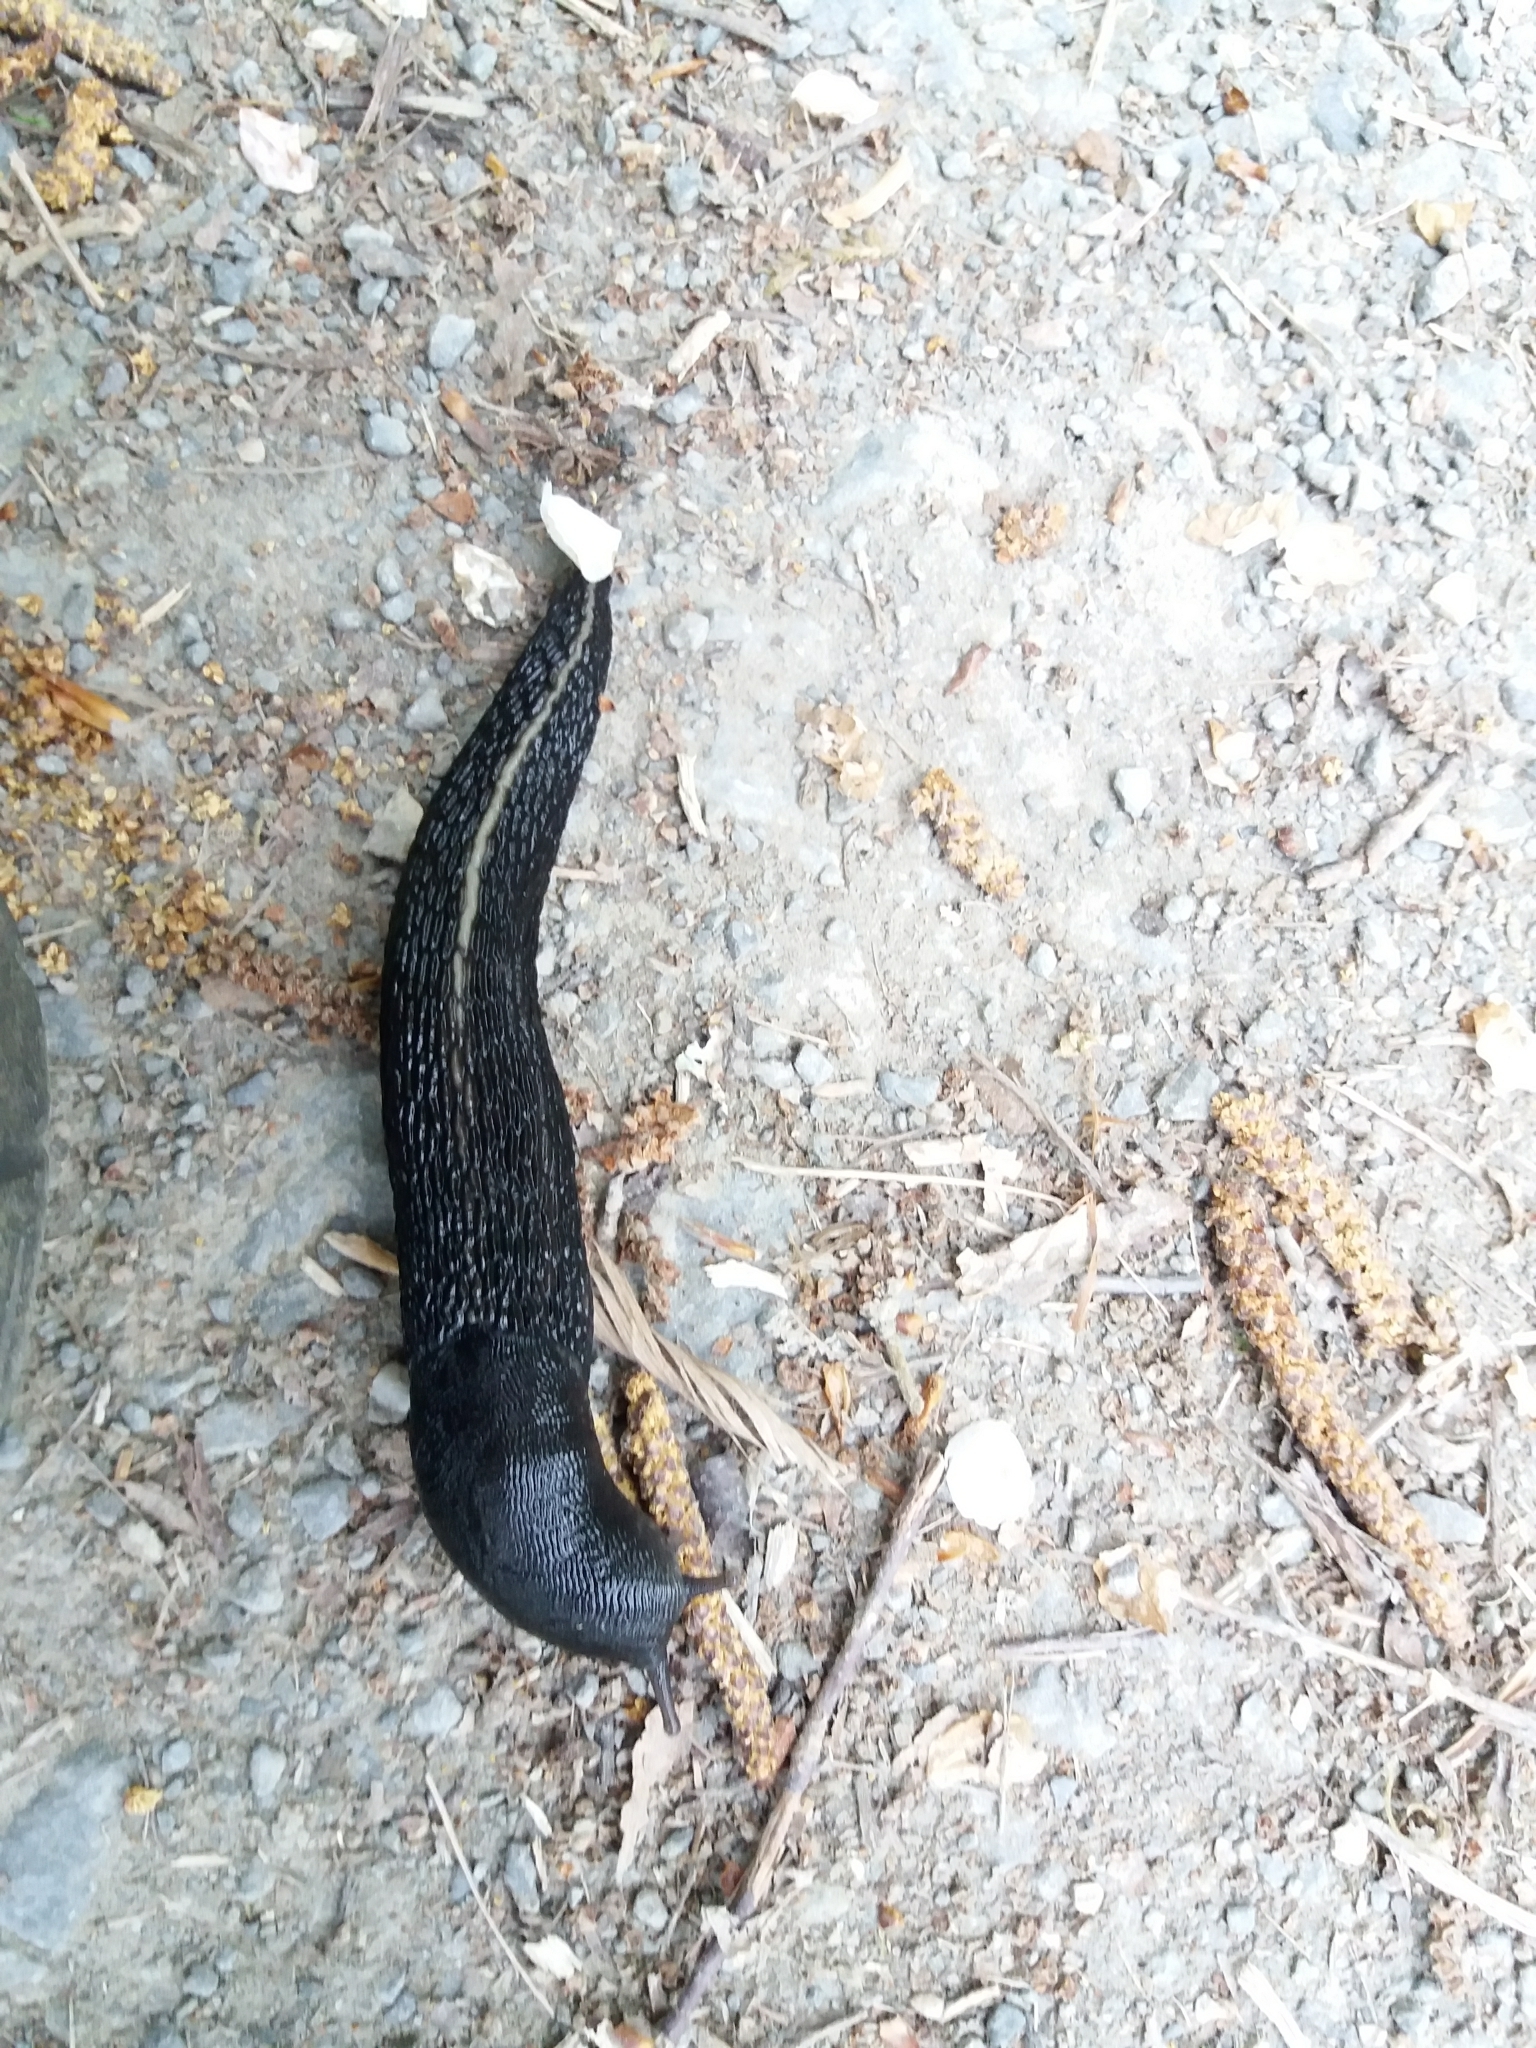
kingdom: Animalia
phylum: Mollusca
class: Gastropoda
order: Stylommatophora
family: Limacidae
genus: Limax
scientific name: Limax cinereoniger
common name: Ash-black slug
